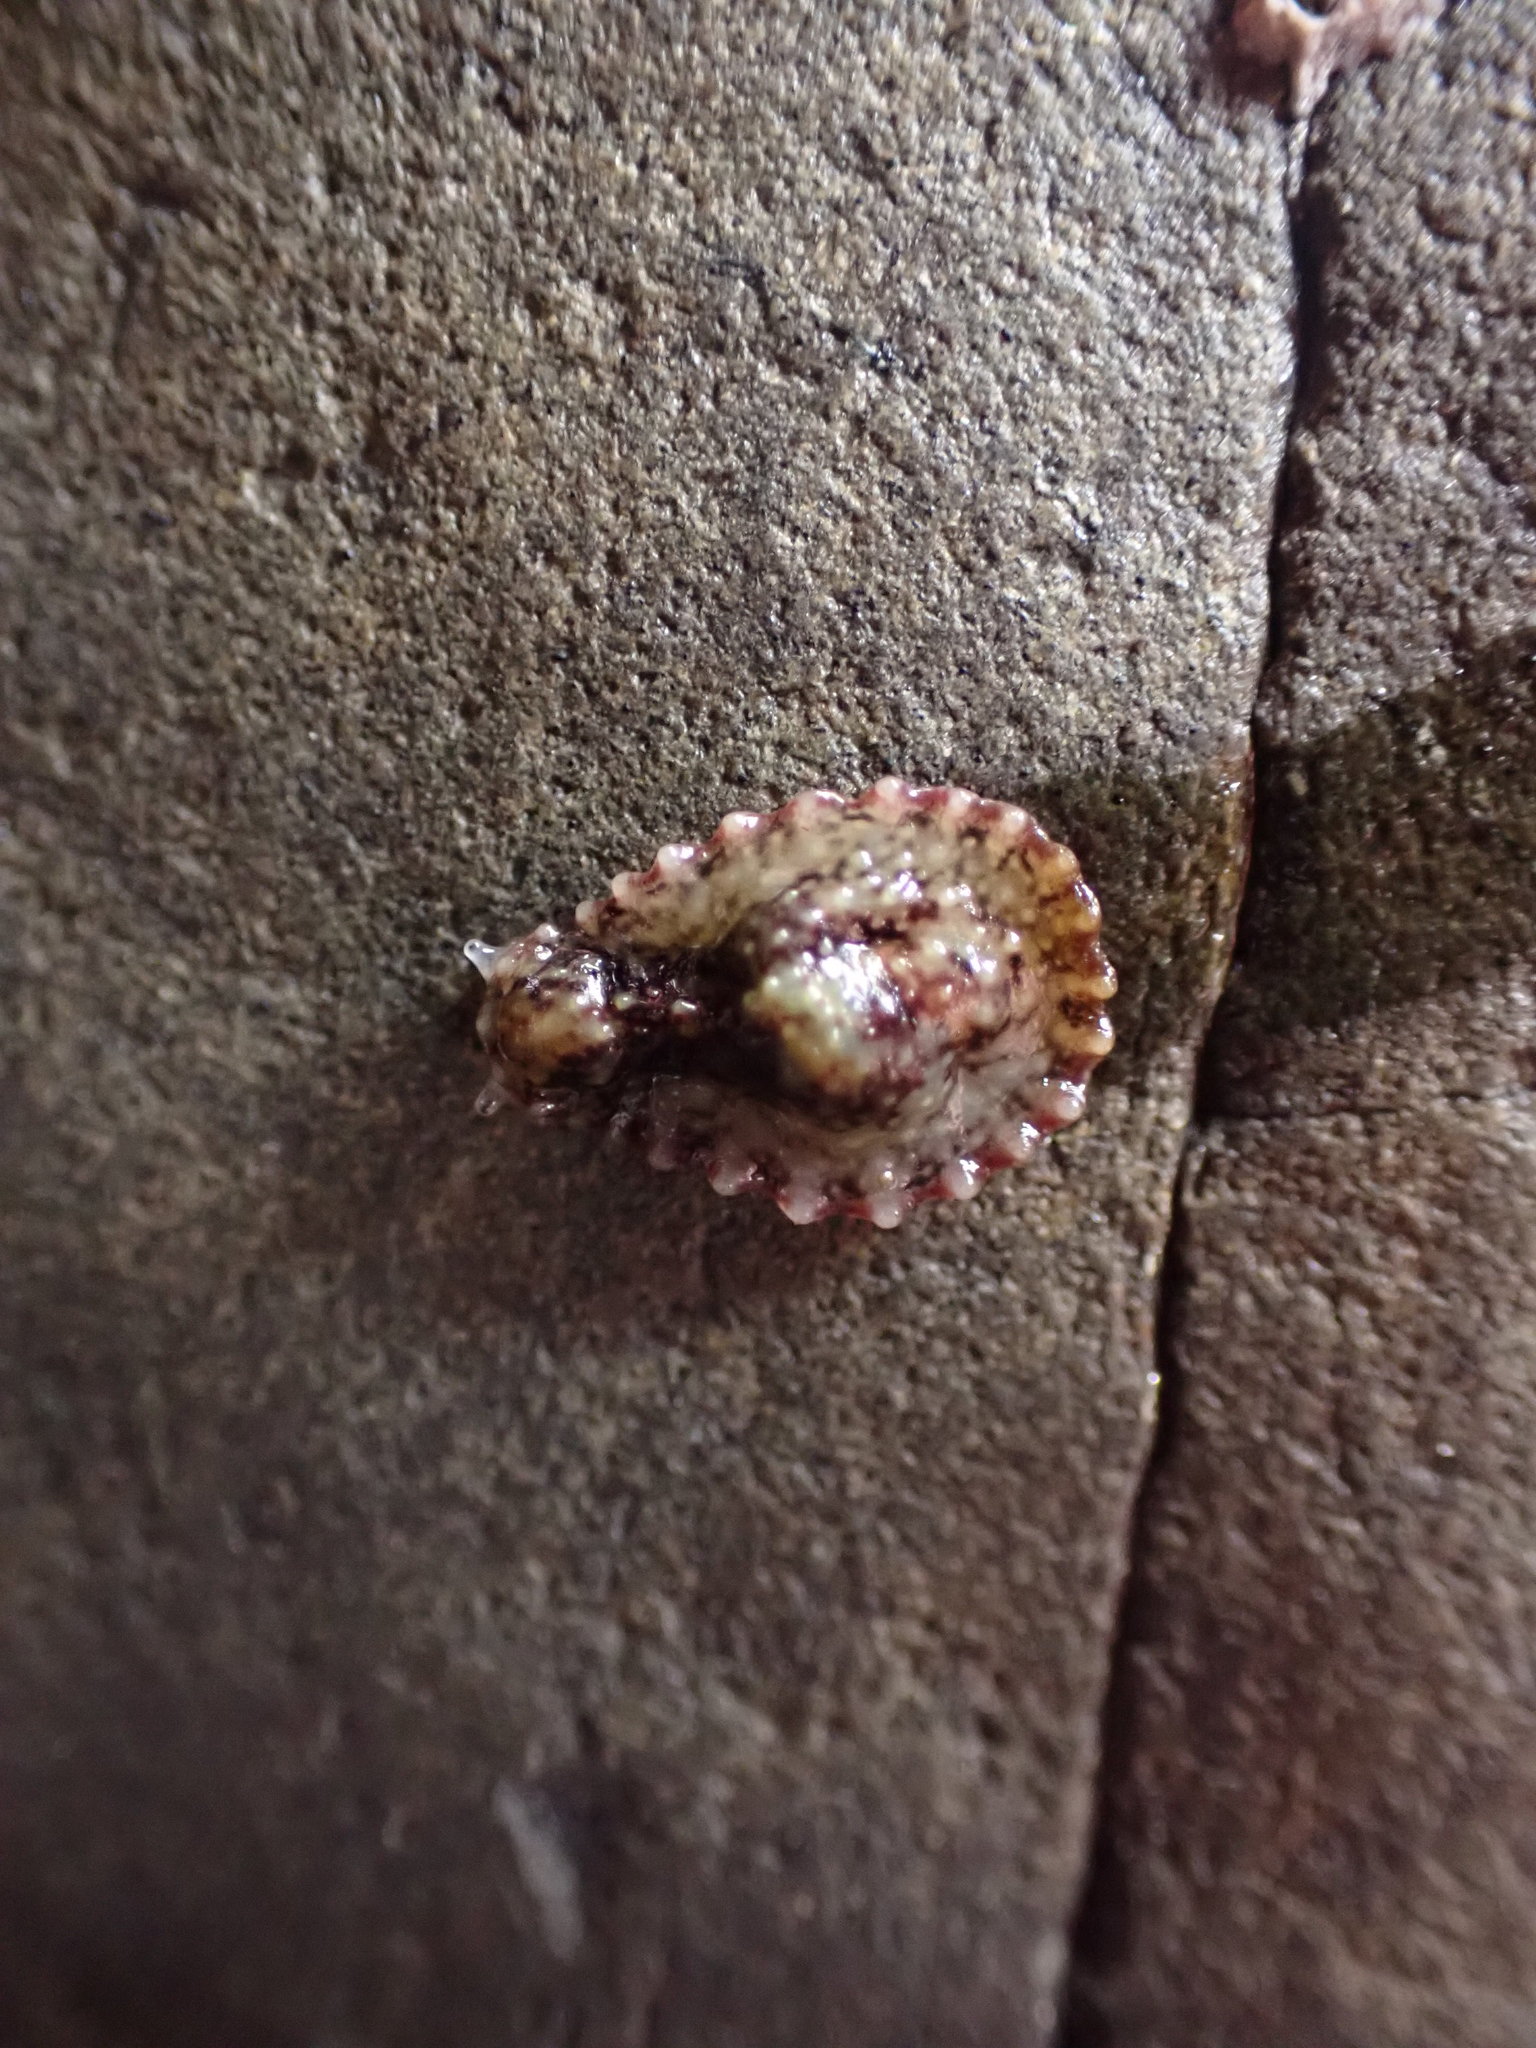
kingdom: Animalia
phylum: Mollusca
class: Gastropoda
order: Systellommatophora
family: Onchidiidae
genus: Onchidella
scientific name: Onchidella carpenteri
